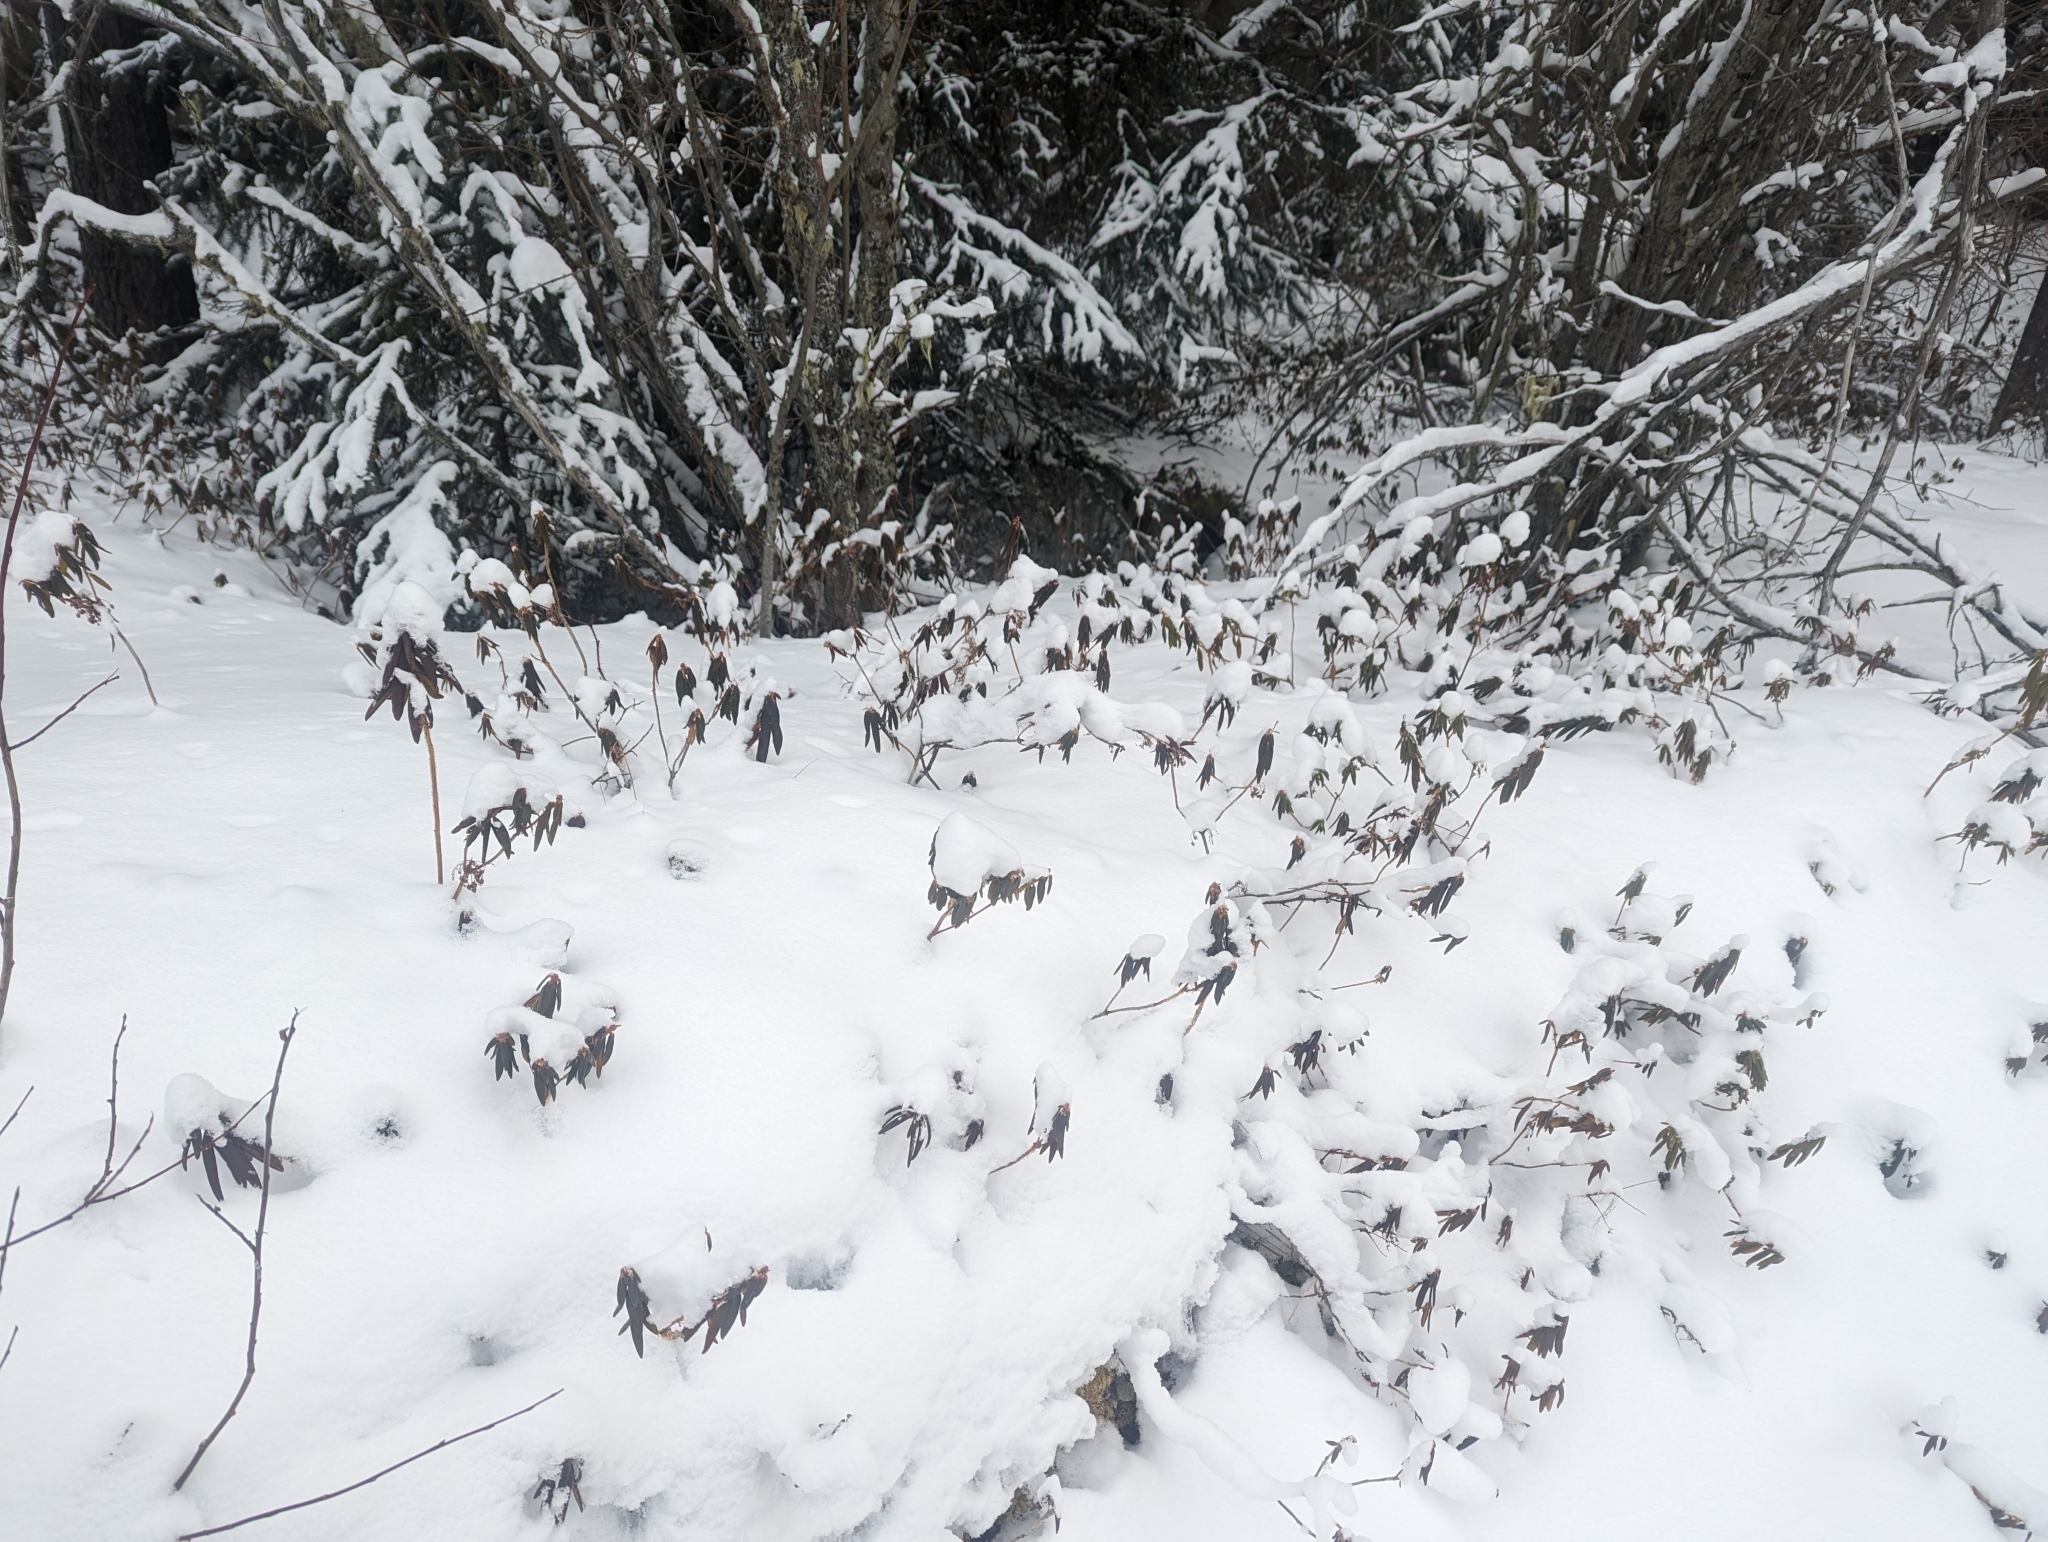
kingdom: Plantae
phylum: Tracheophyta
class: Magnoliopsida
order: Ericales
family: Ericaceae
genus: Rhododendron
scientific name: Rhododendron groenlandicum
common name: Bog labrador tea
